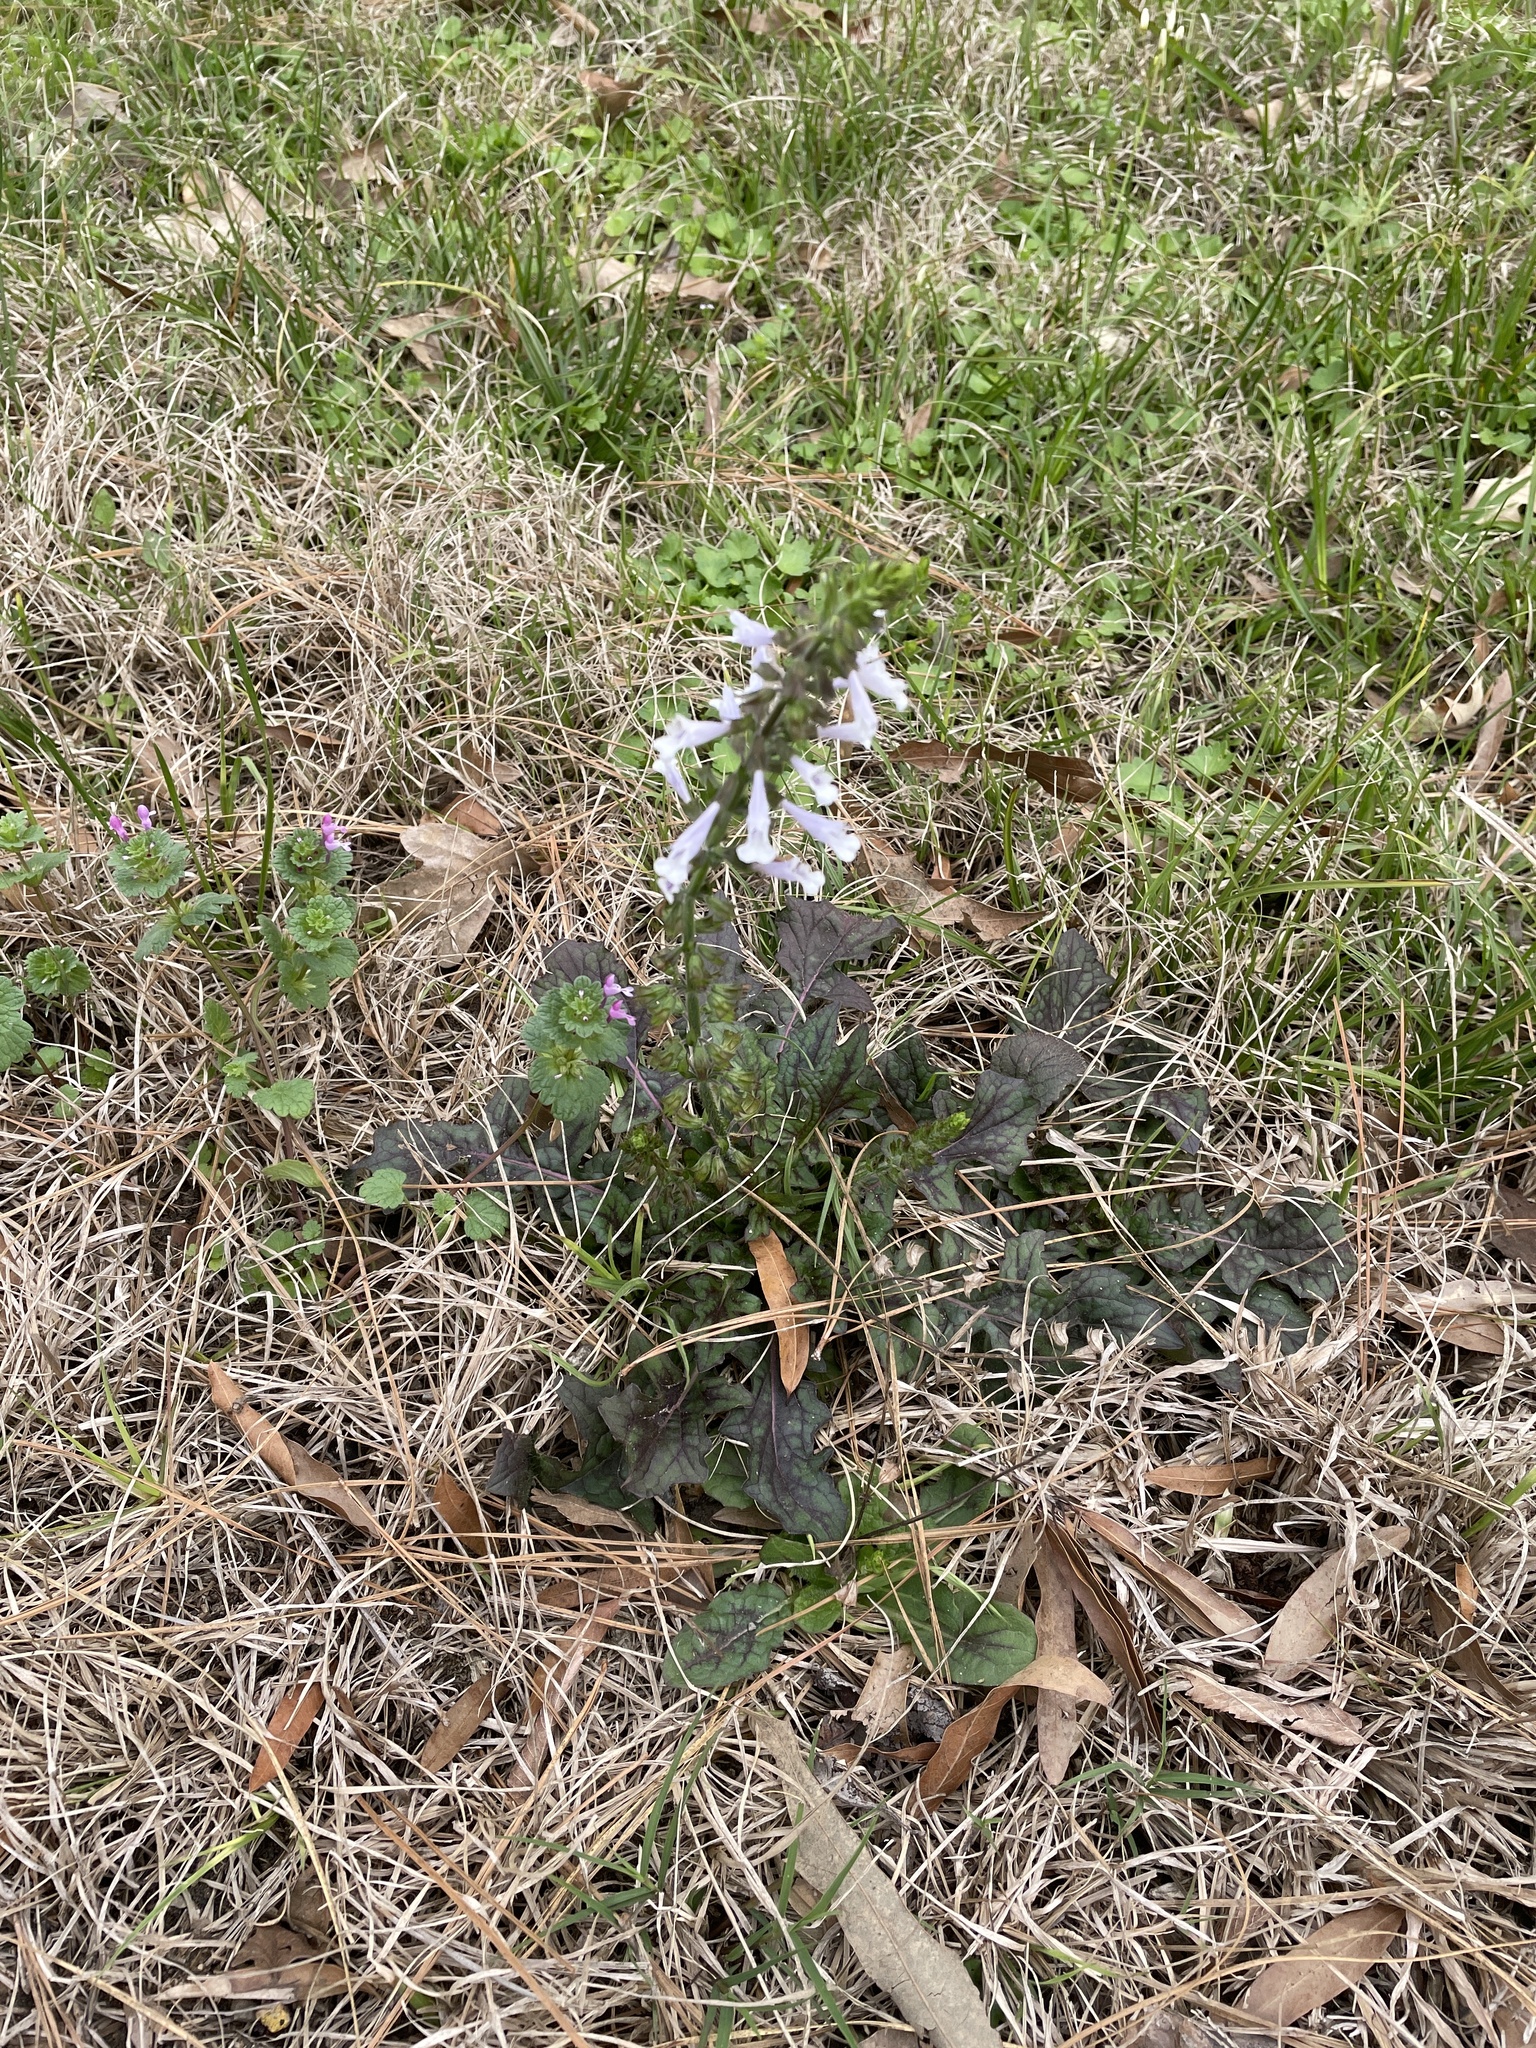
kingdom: Plantae
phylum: Tracheophyta
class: Magnoliopsida
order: Lamiales
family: Lamiaceae
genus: Salvia
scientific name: Salvia lyrata
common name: Cancerweed
